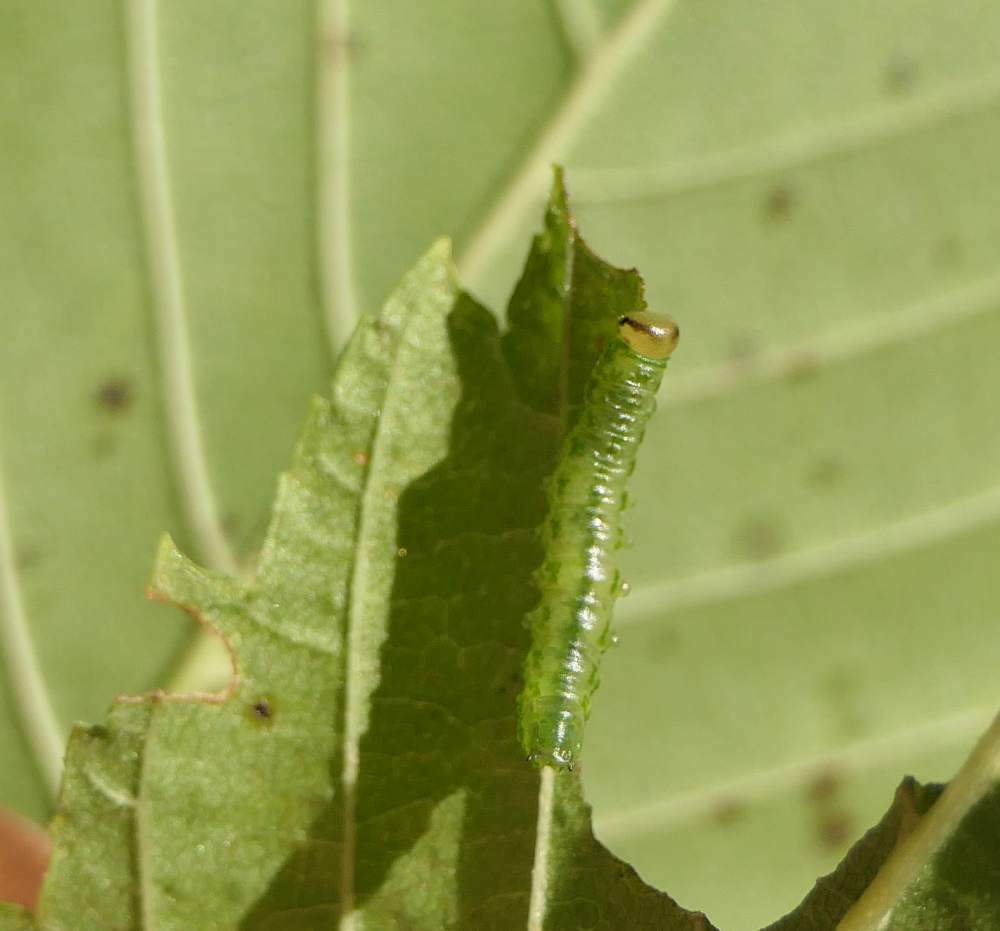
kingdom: Animalia
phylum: Arthropoda
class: Insecta
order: Hymenoptera
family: Argidae
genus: Aproceros
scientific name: Aproceros leucopoda
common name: Zig-zag elm sawfly
